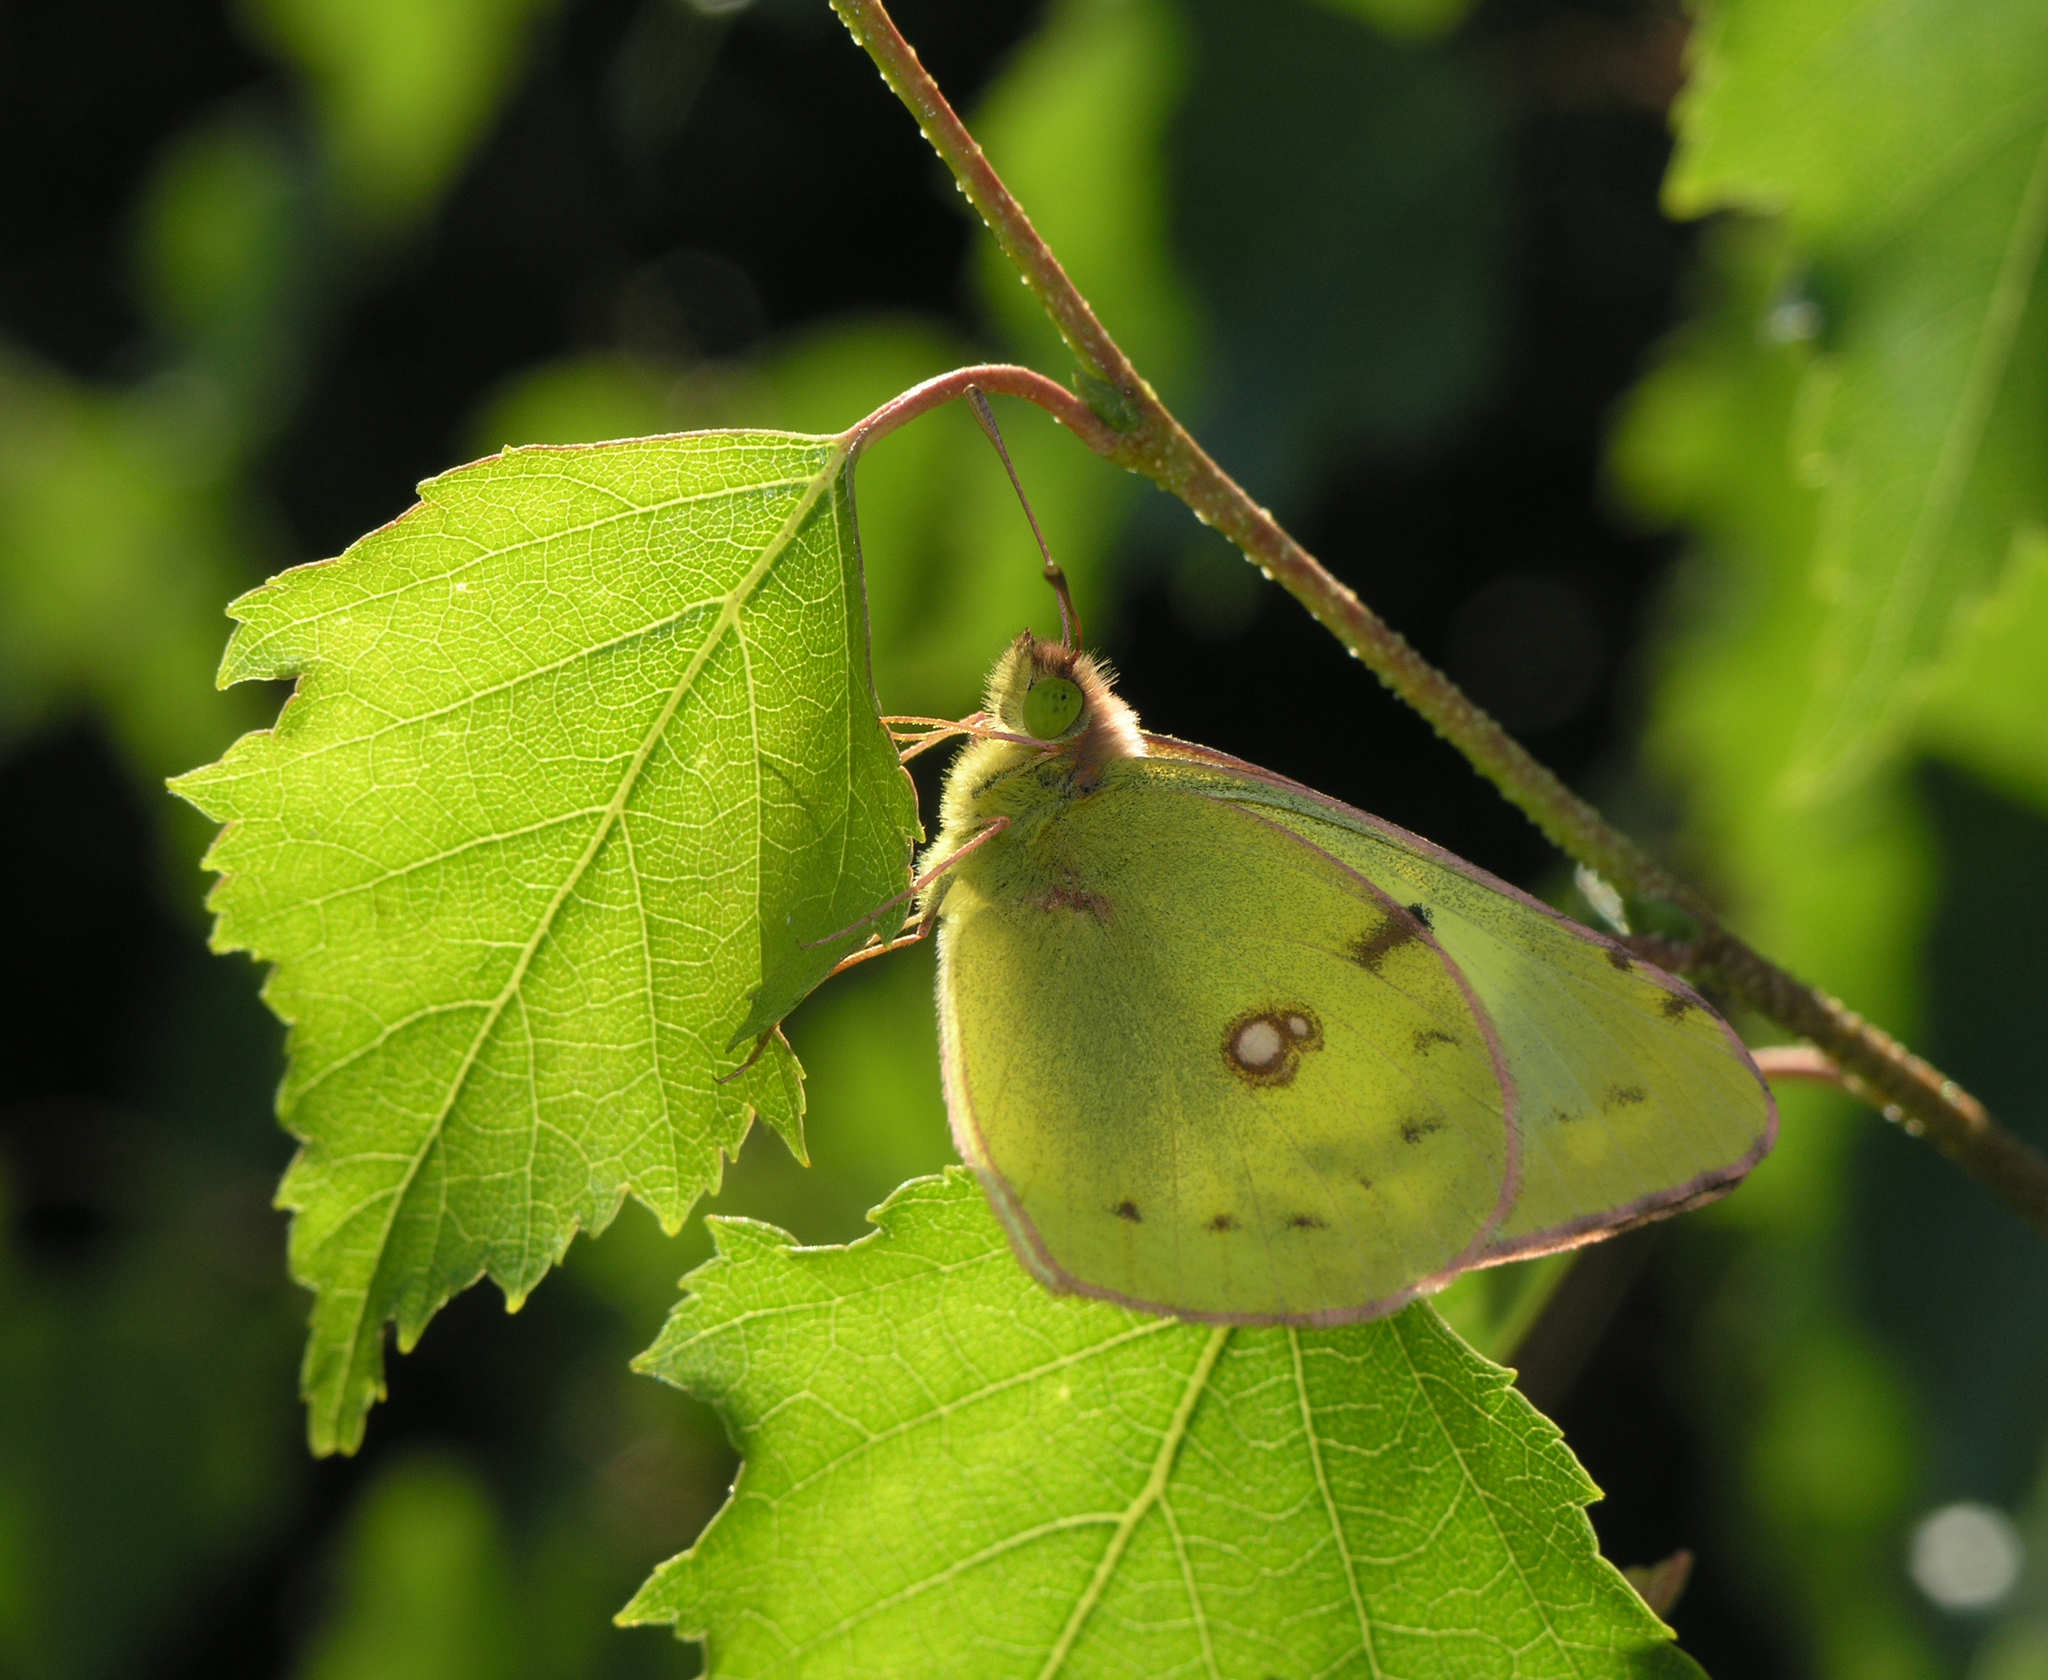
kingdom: Animalia
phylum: Arthropoda
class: Insecta
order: Lepidoptera
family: Pieridae
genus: Colias
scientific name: Colias hyale
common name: Pale clouded yellow
